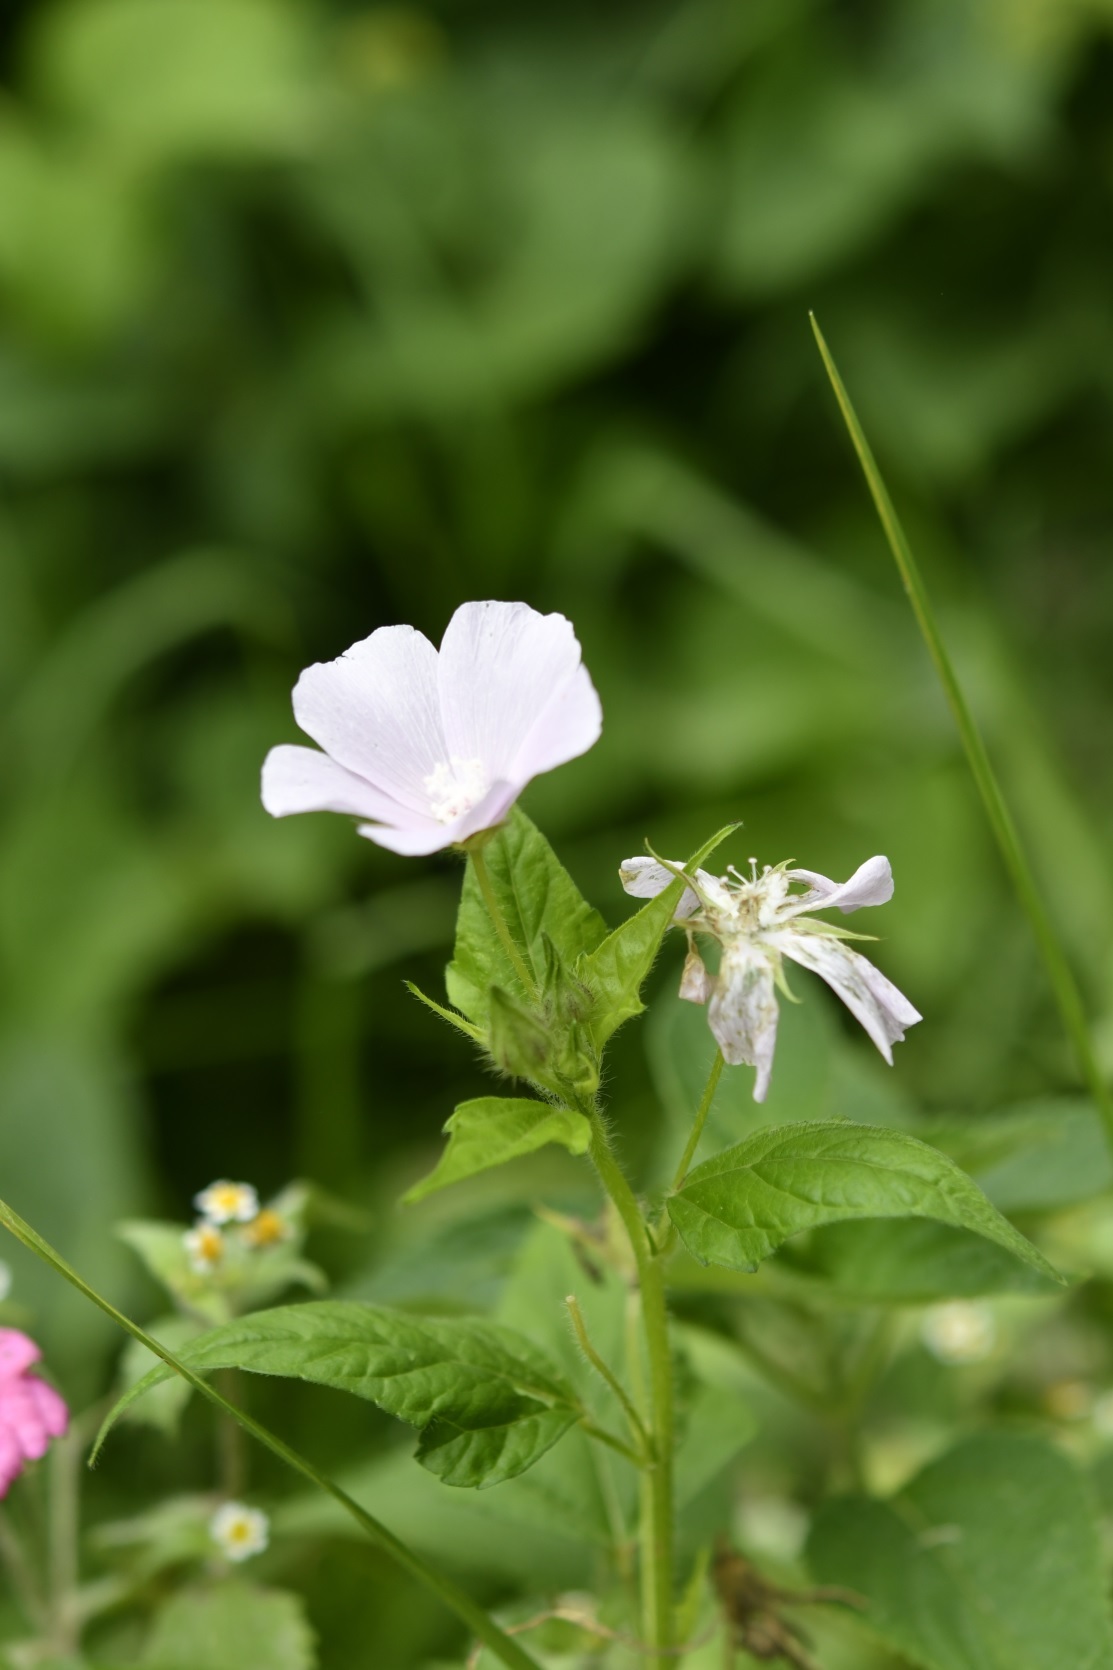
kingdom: Plantae
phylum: Tracheophyta
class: Magnoliopsida
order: Malvales
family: Malvaceae
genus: Anoda
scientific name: Anoda albiflora
